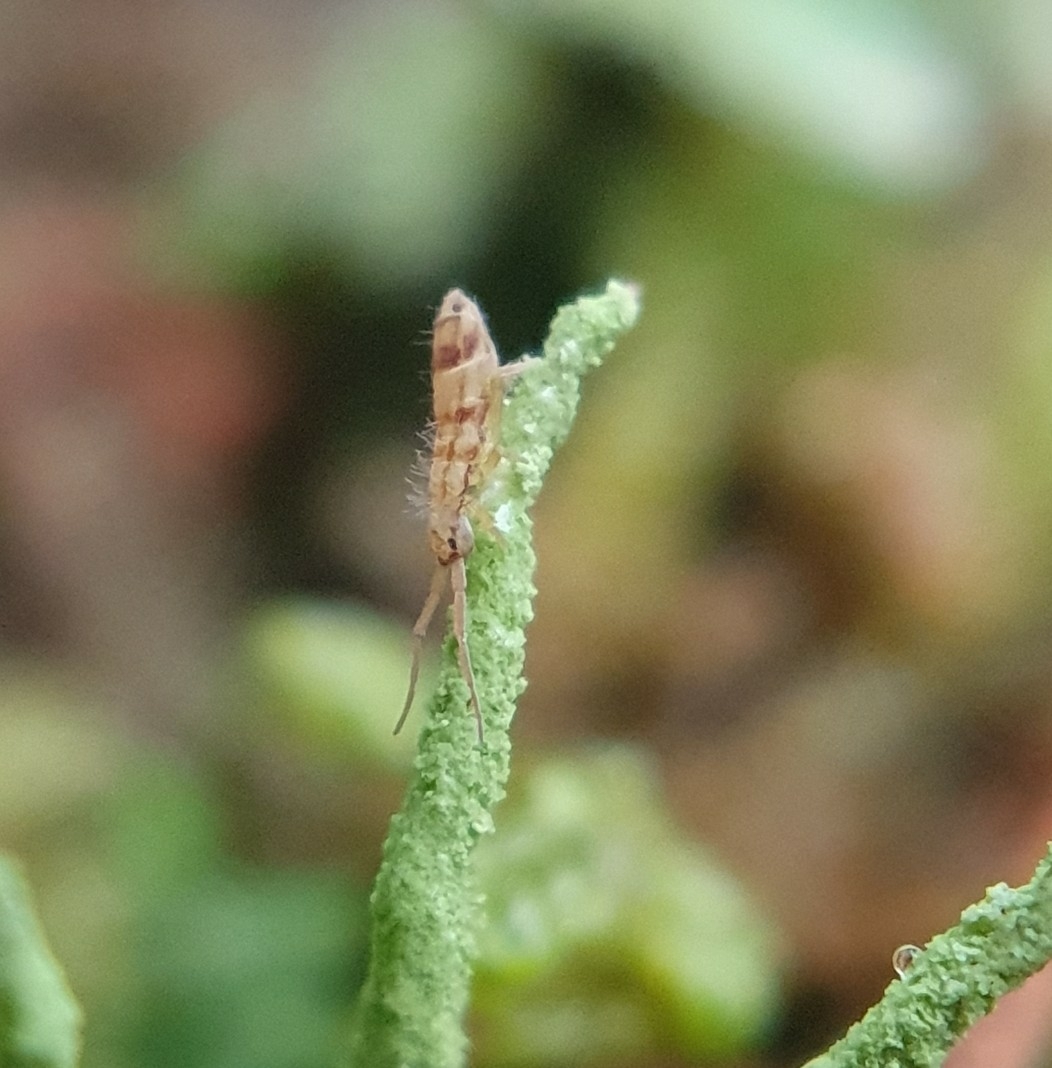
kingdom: Animalia
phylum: Arthropoda
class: Collembola
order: Entomobryomorpha
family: Entomobryidae
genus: Entomobrya
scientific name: Entomobrya nivalis
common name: Cosmopolitan springtail
